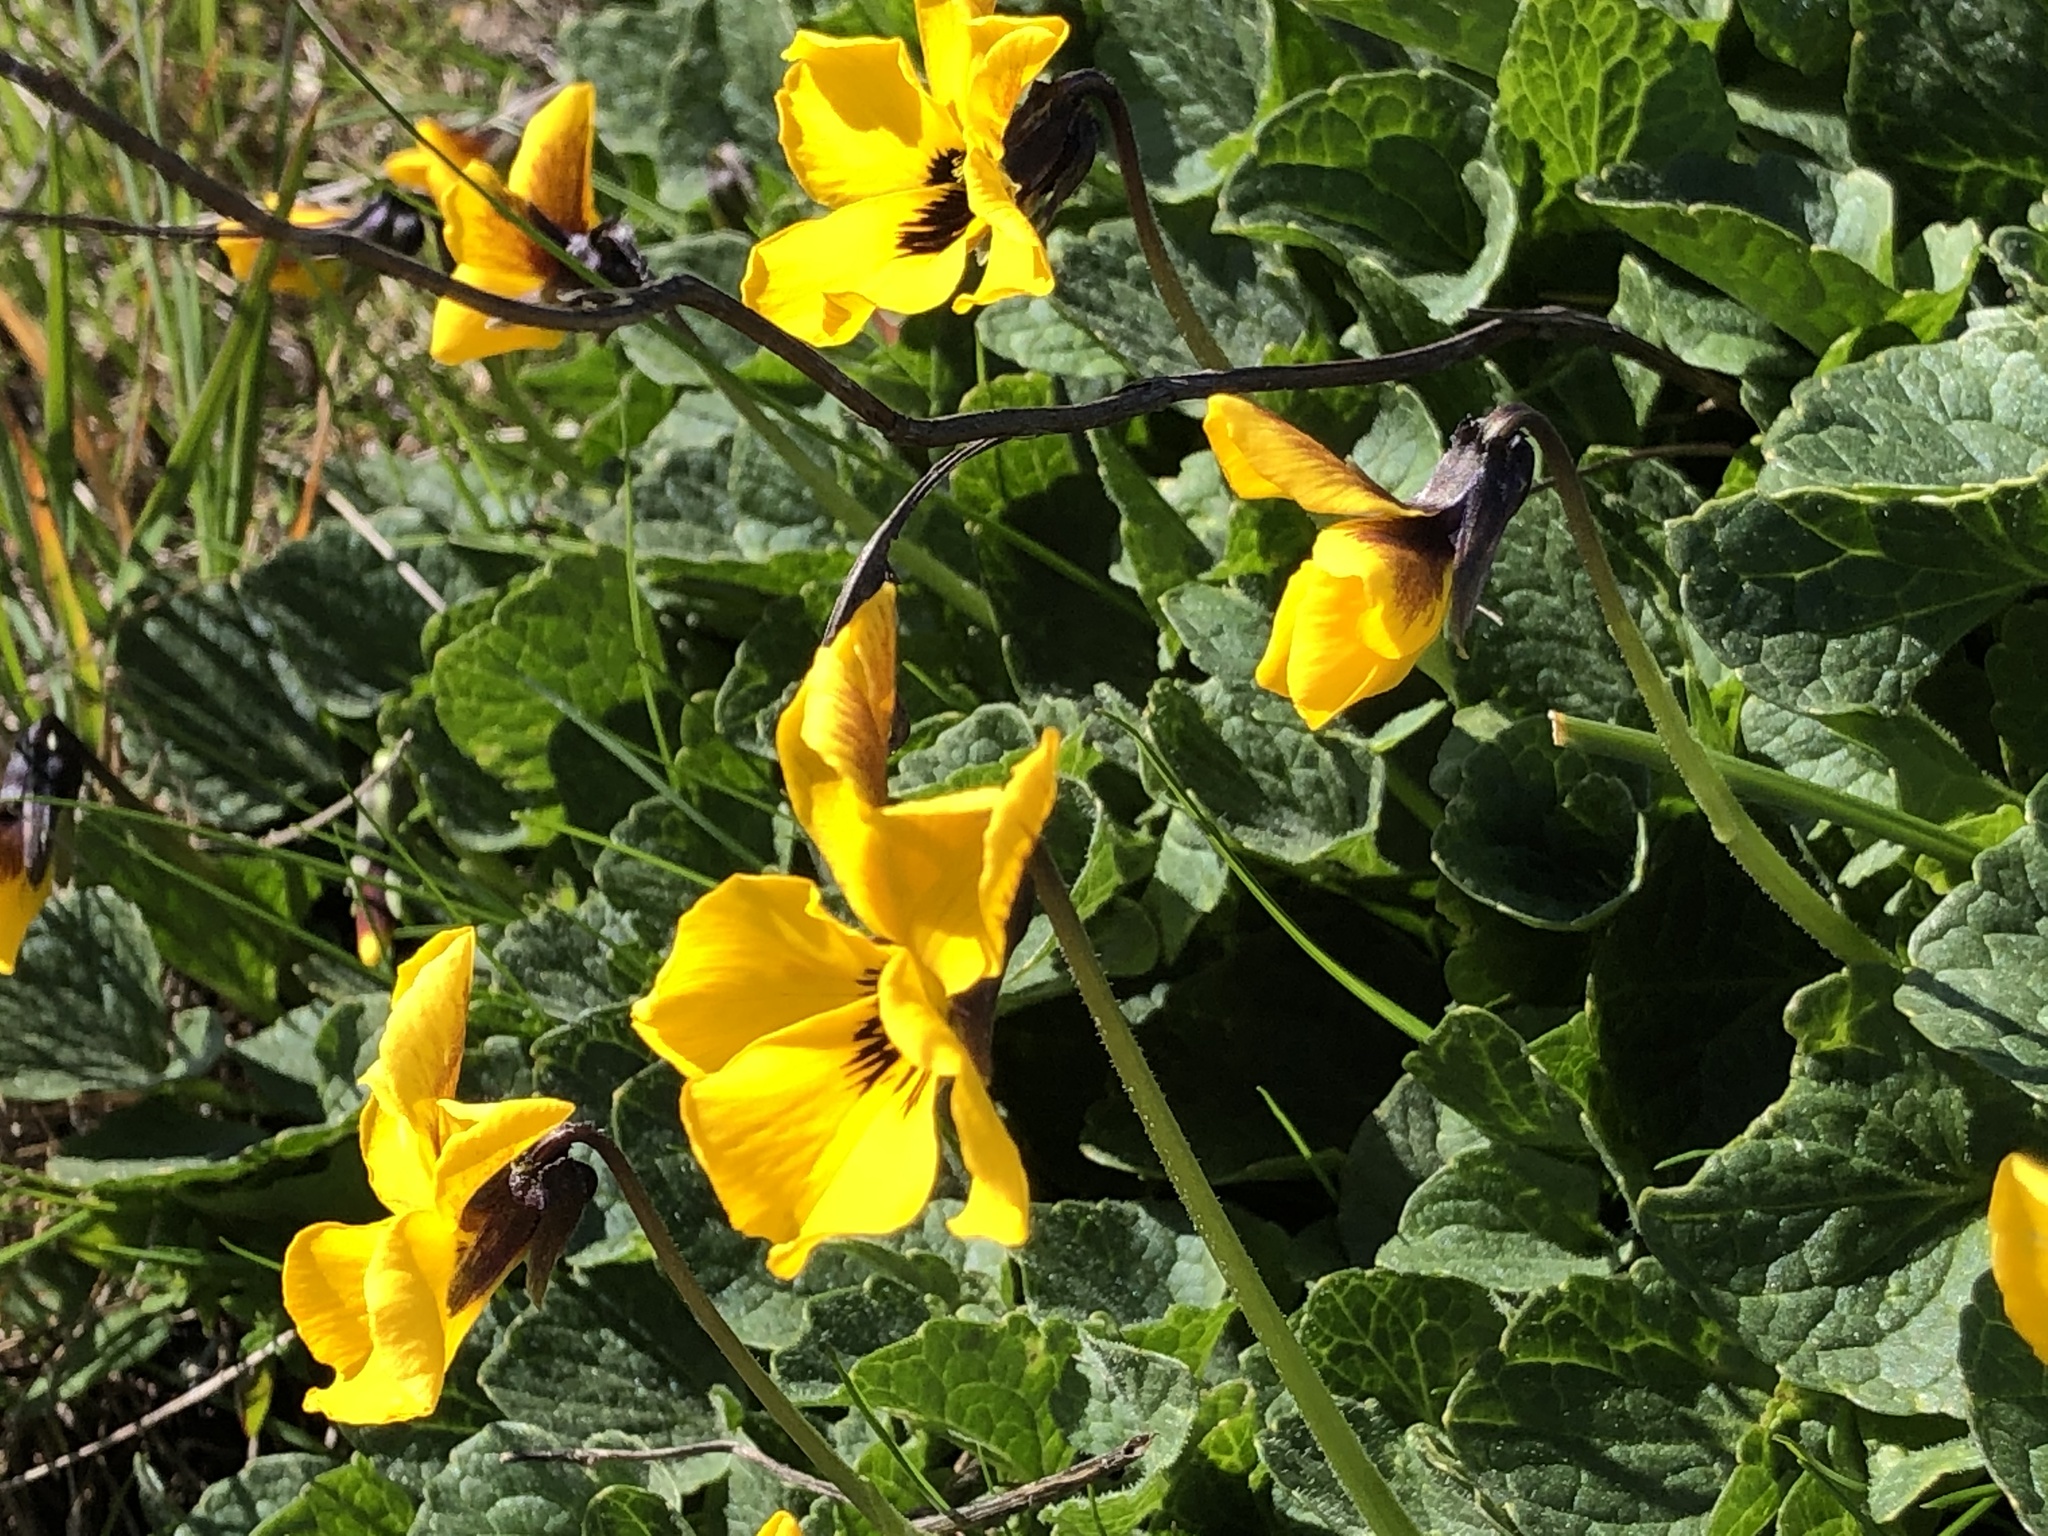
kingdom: Plantae
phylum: Tracheophyta
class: Magnoliopsida
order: Malpighiales
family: Violaceae
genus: Viola
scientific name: Viola pedunculata
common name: California golden violet
